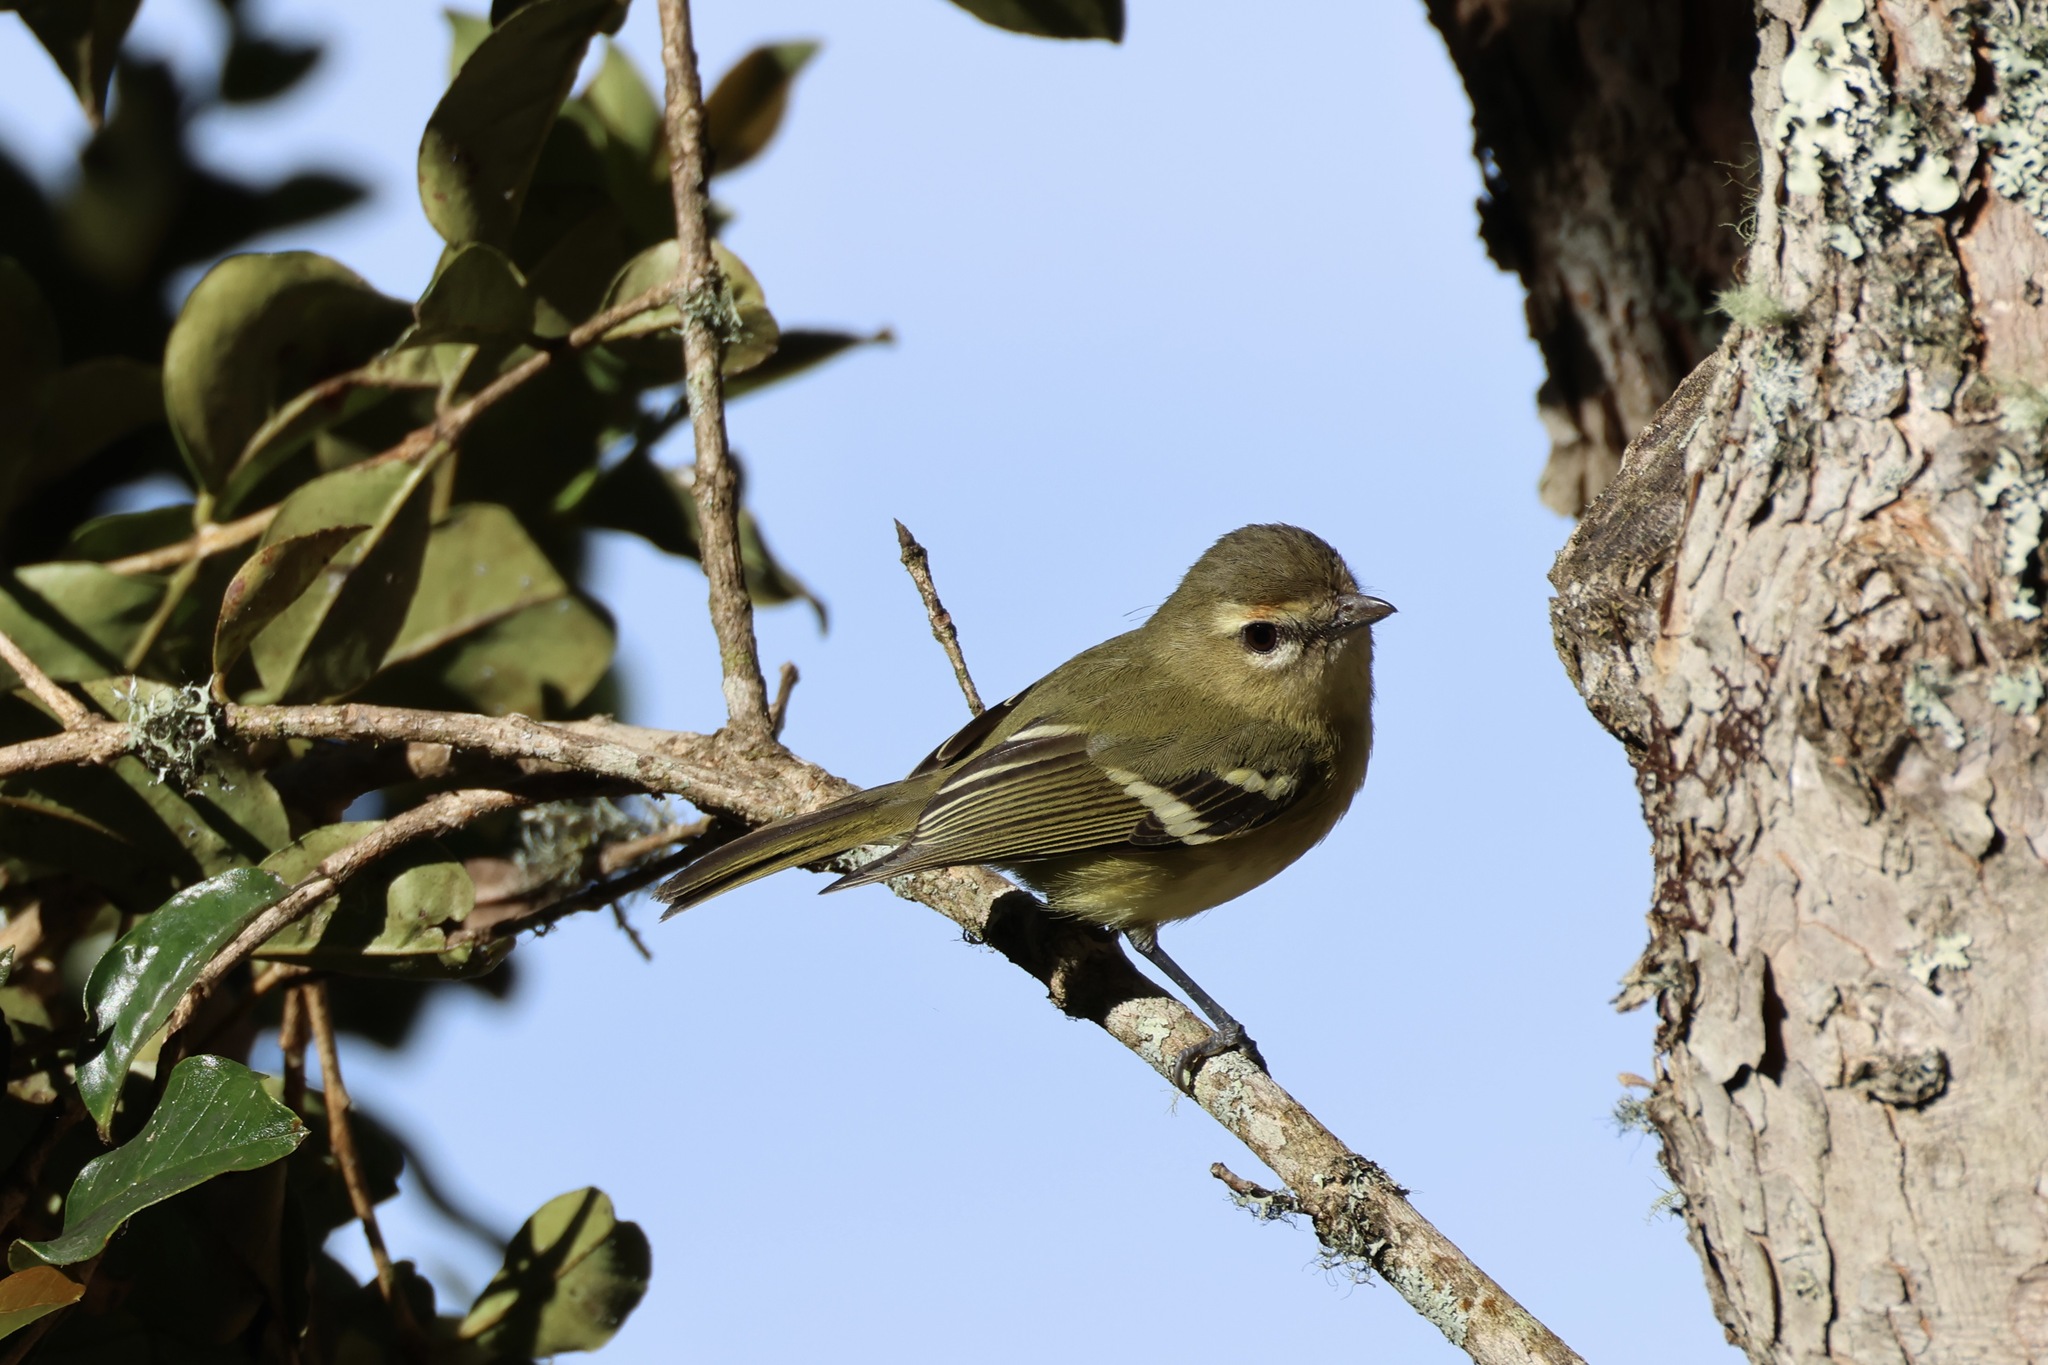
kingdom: Animalia
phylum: Chordata
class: Aves
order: Passeriformes
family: Vireonidae
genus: Vireo
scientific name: Vireo carmioli
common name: Yellow-winged vireo
